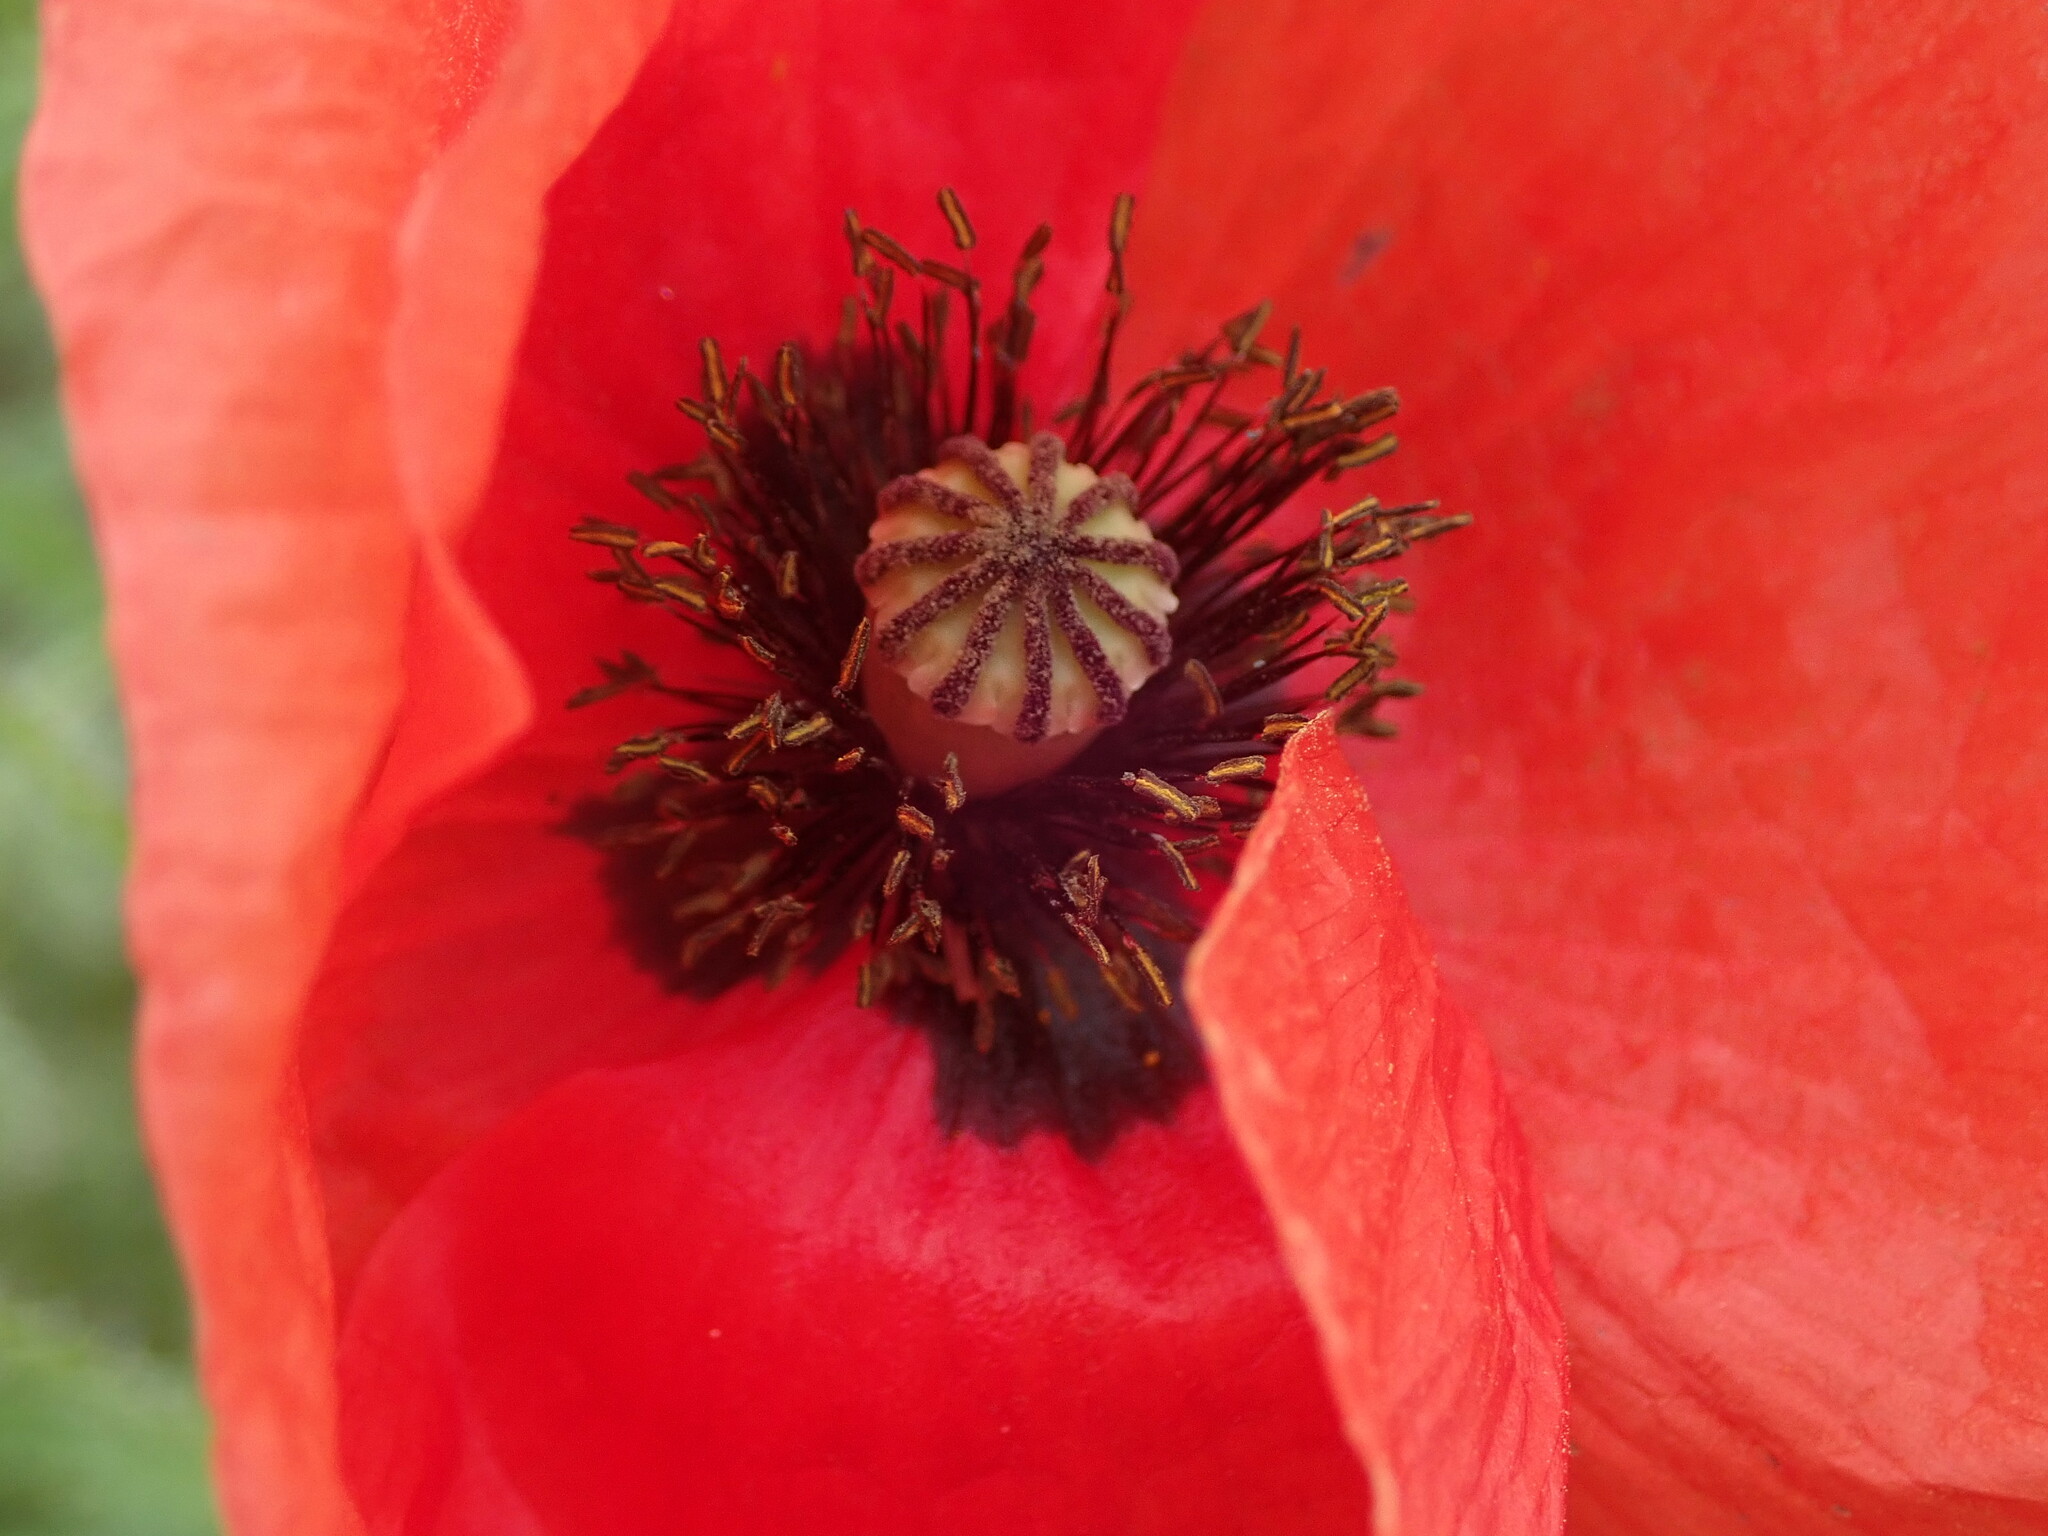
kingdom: Plantae
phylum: Tracheophyta
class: Magnoliopsida
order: Ranunculales
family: Papaveraceae
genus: Papaver
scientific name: Papaver rhoeas
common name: Corn poppy
